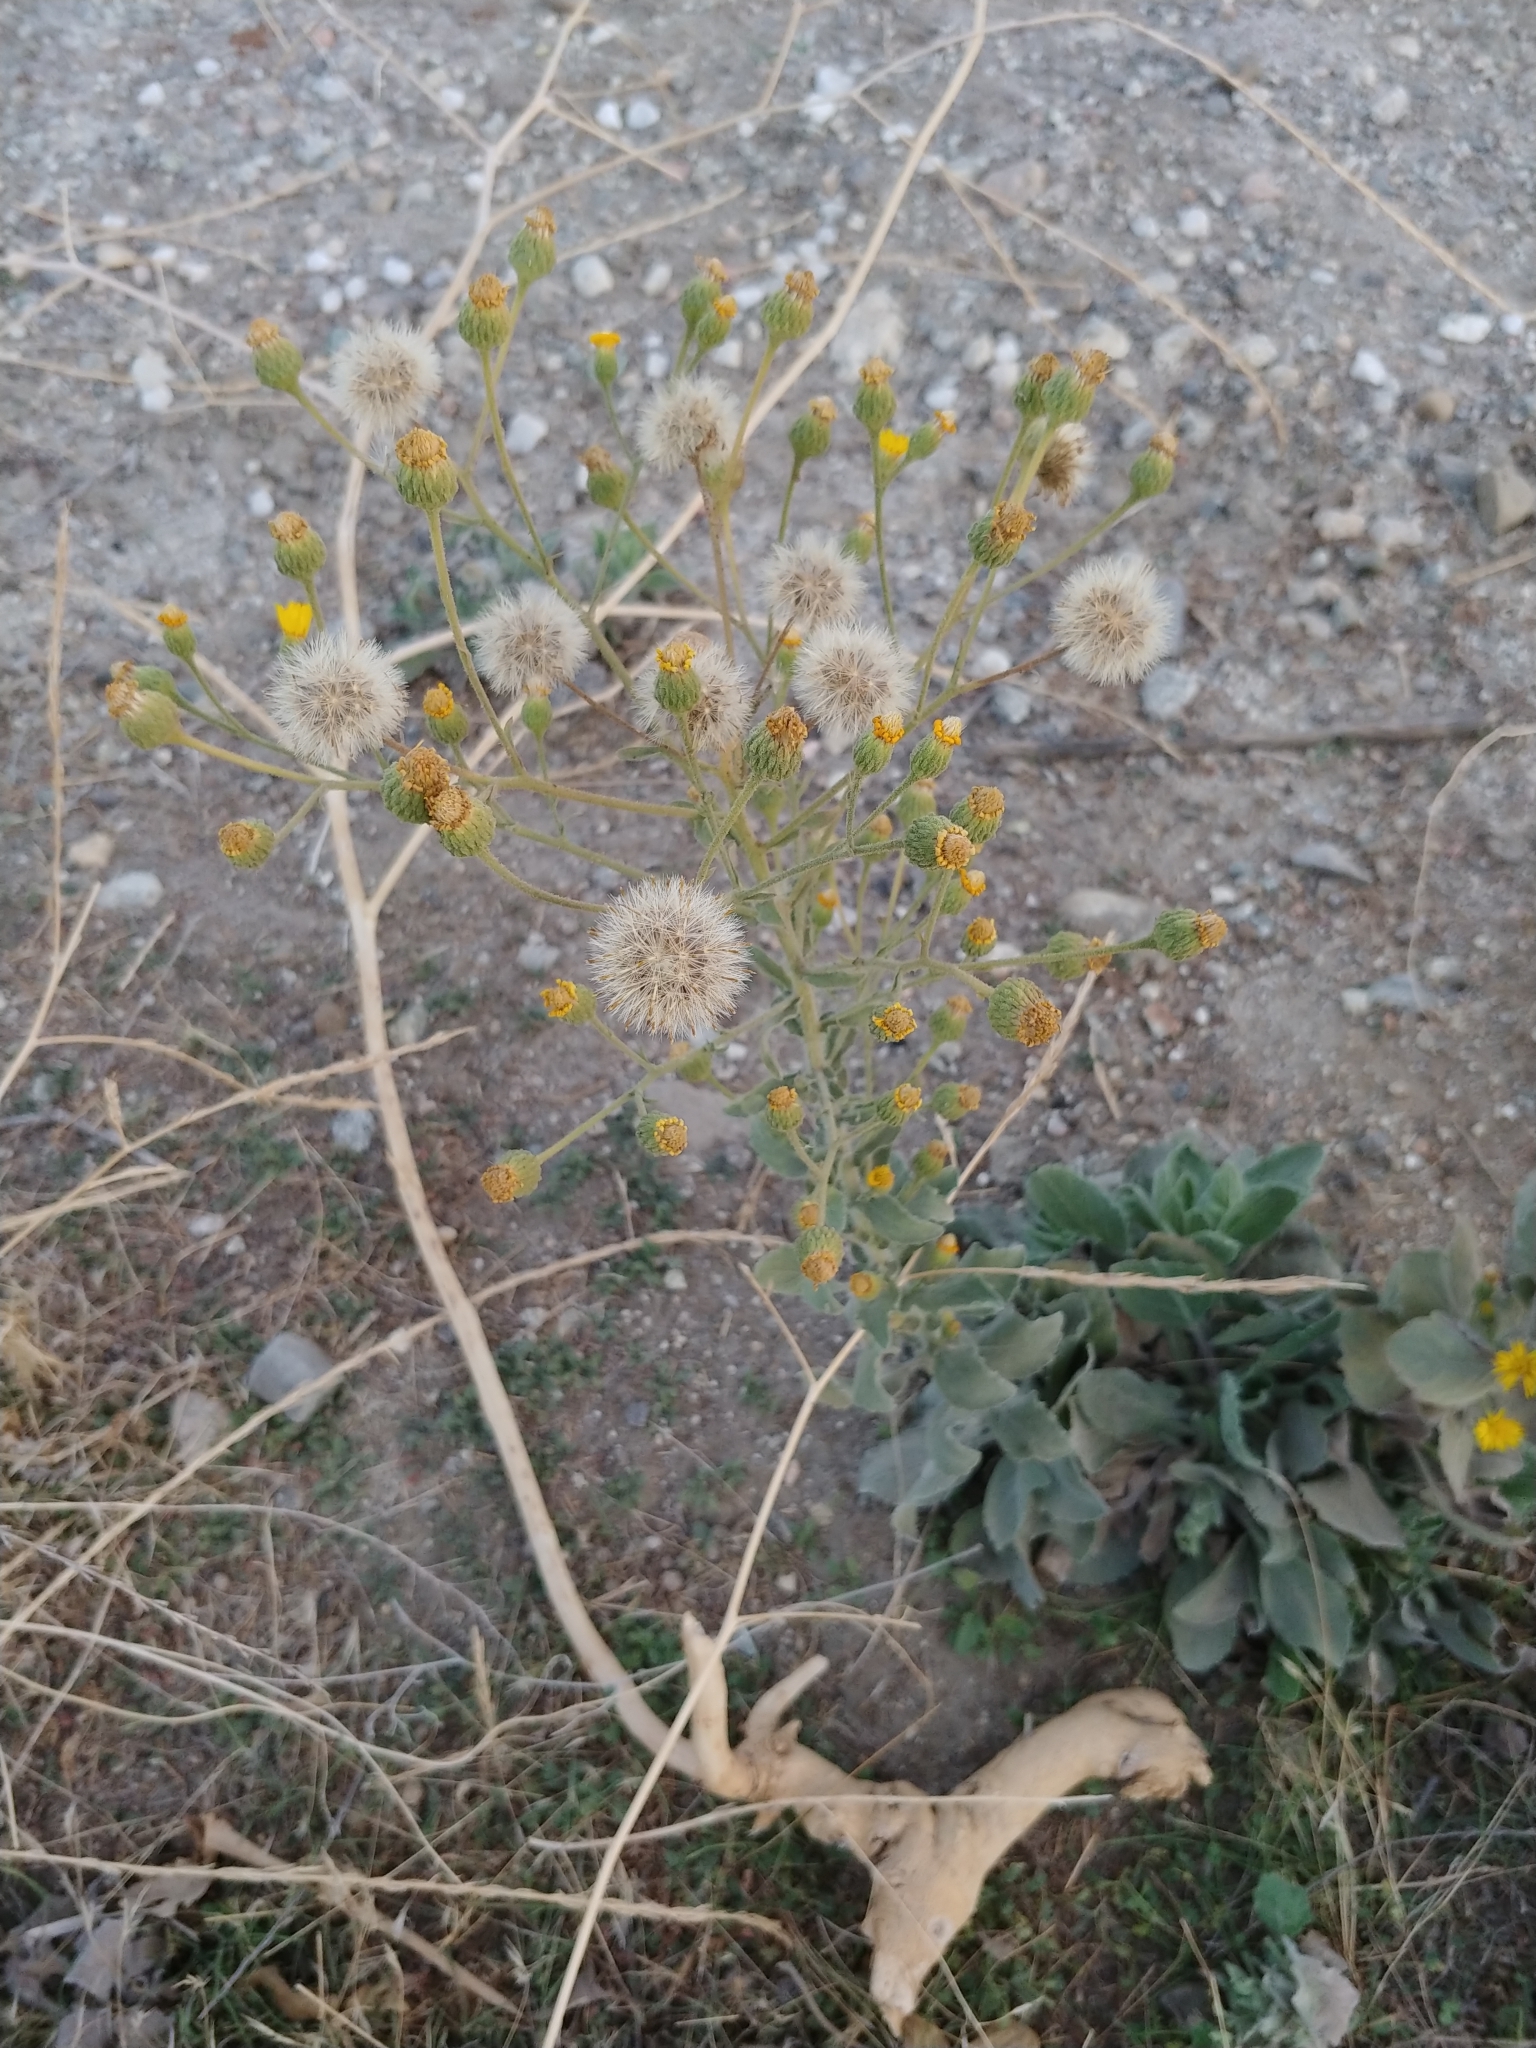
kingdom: Plantae
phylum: Tracheophyta
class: Magnoliopsida
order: Asterales
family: Asteraceae
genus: Heterotheca
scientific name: Heterotheca grandiflora
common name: Telegraphweed
